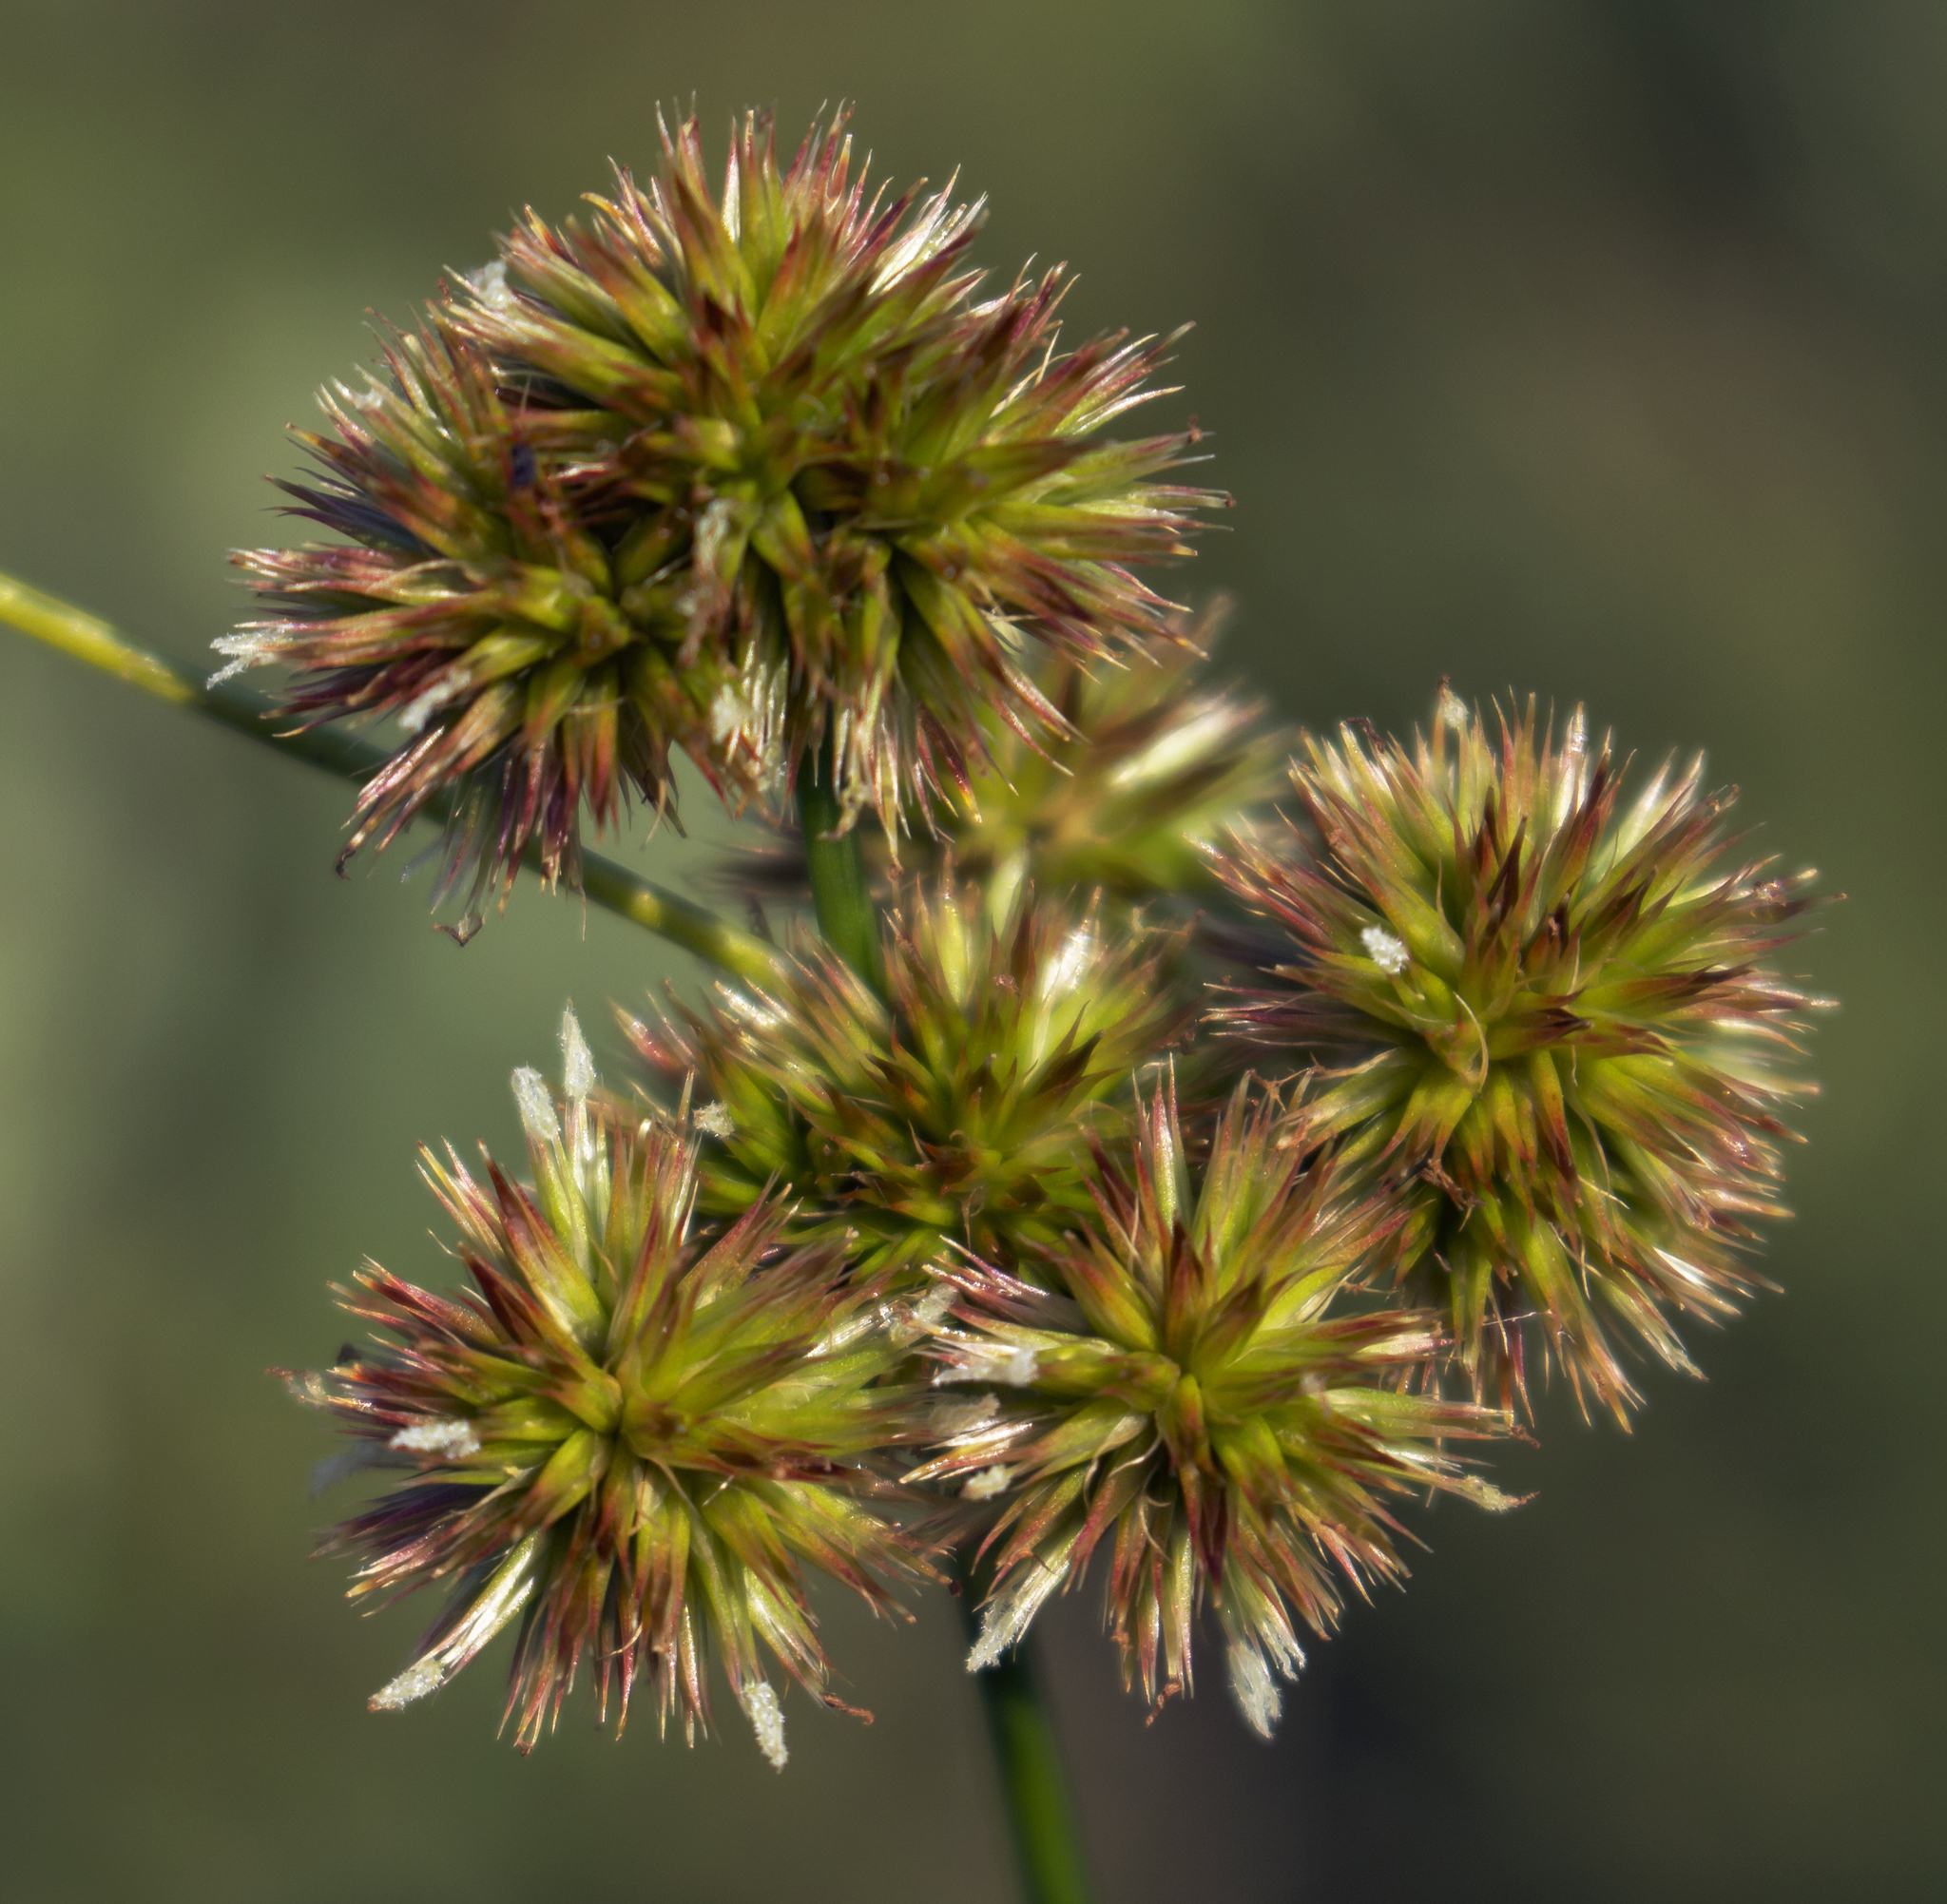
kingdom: Plantae
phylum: Tracheophyta
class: Liliopsida
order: Poales
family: Juncaceae
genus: Juncus
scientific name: Juncus torreyi
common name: Torrey's rush
